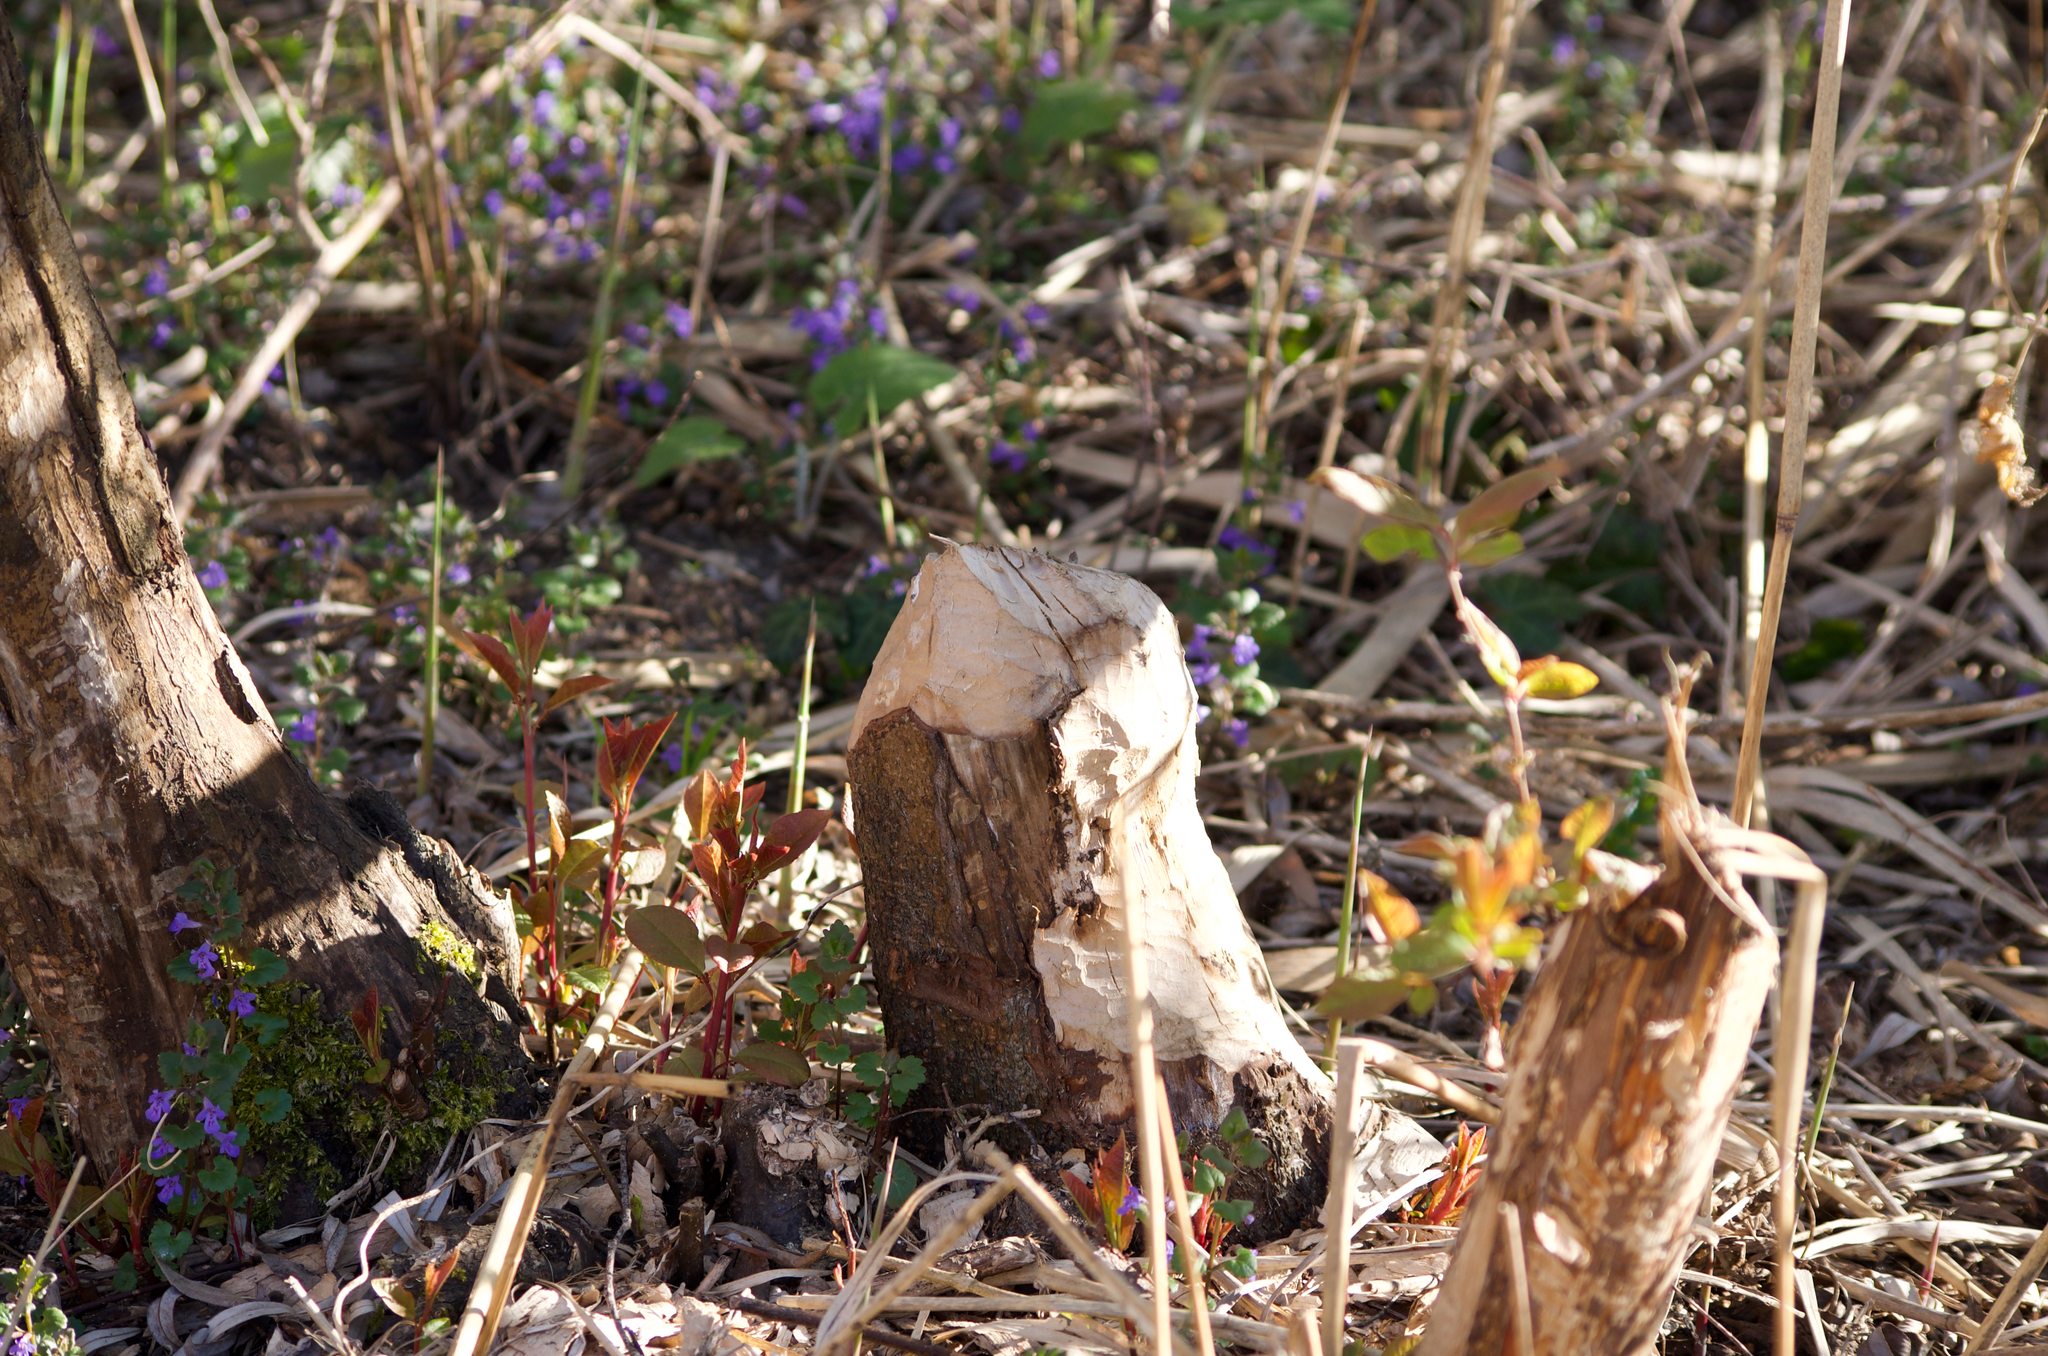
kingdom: Animalia
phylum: Chordata
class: Mammalia
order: Rodentia
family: Castoridae
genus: Castor
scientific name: Castor fiber
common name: Eurasian beaver
